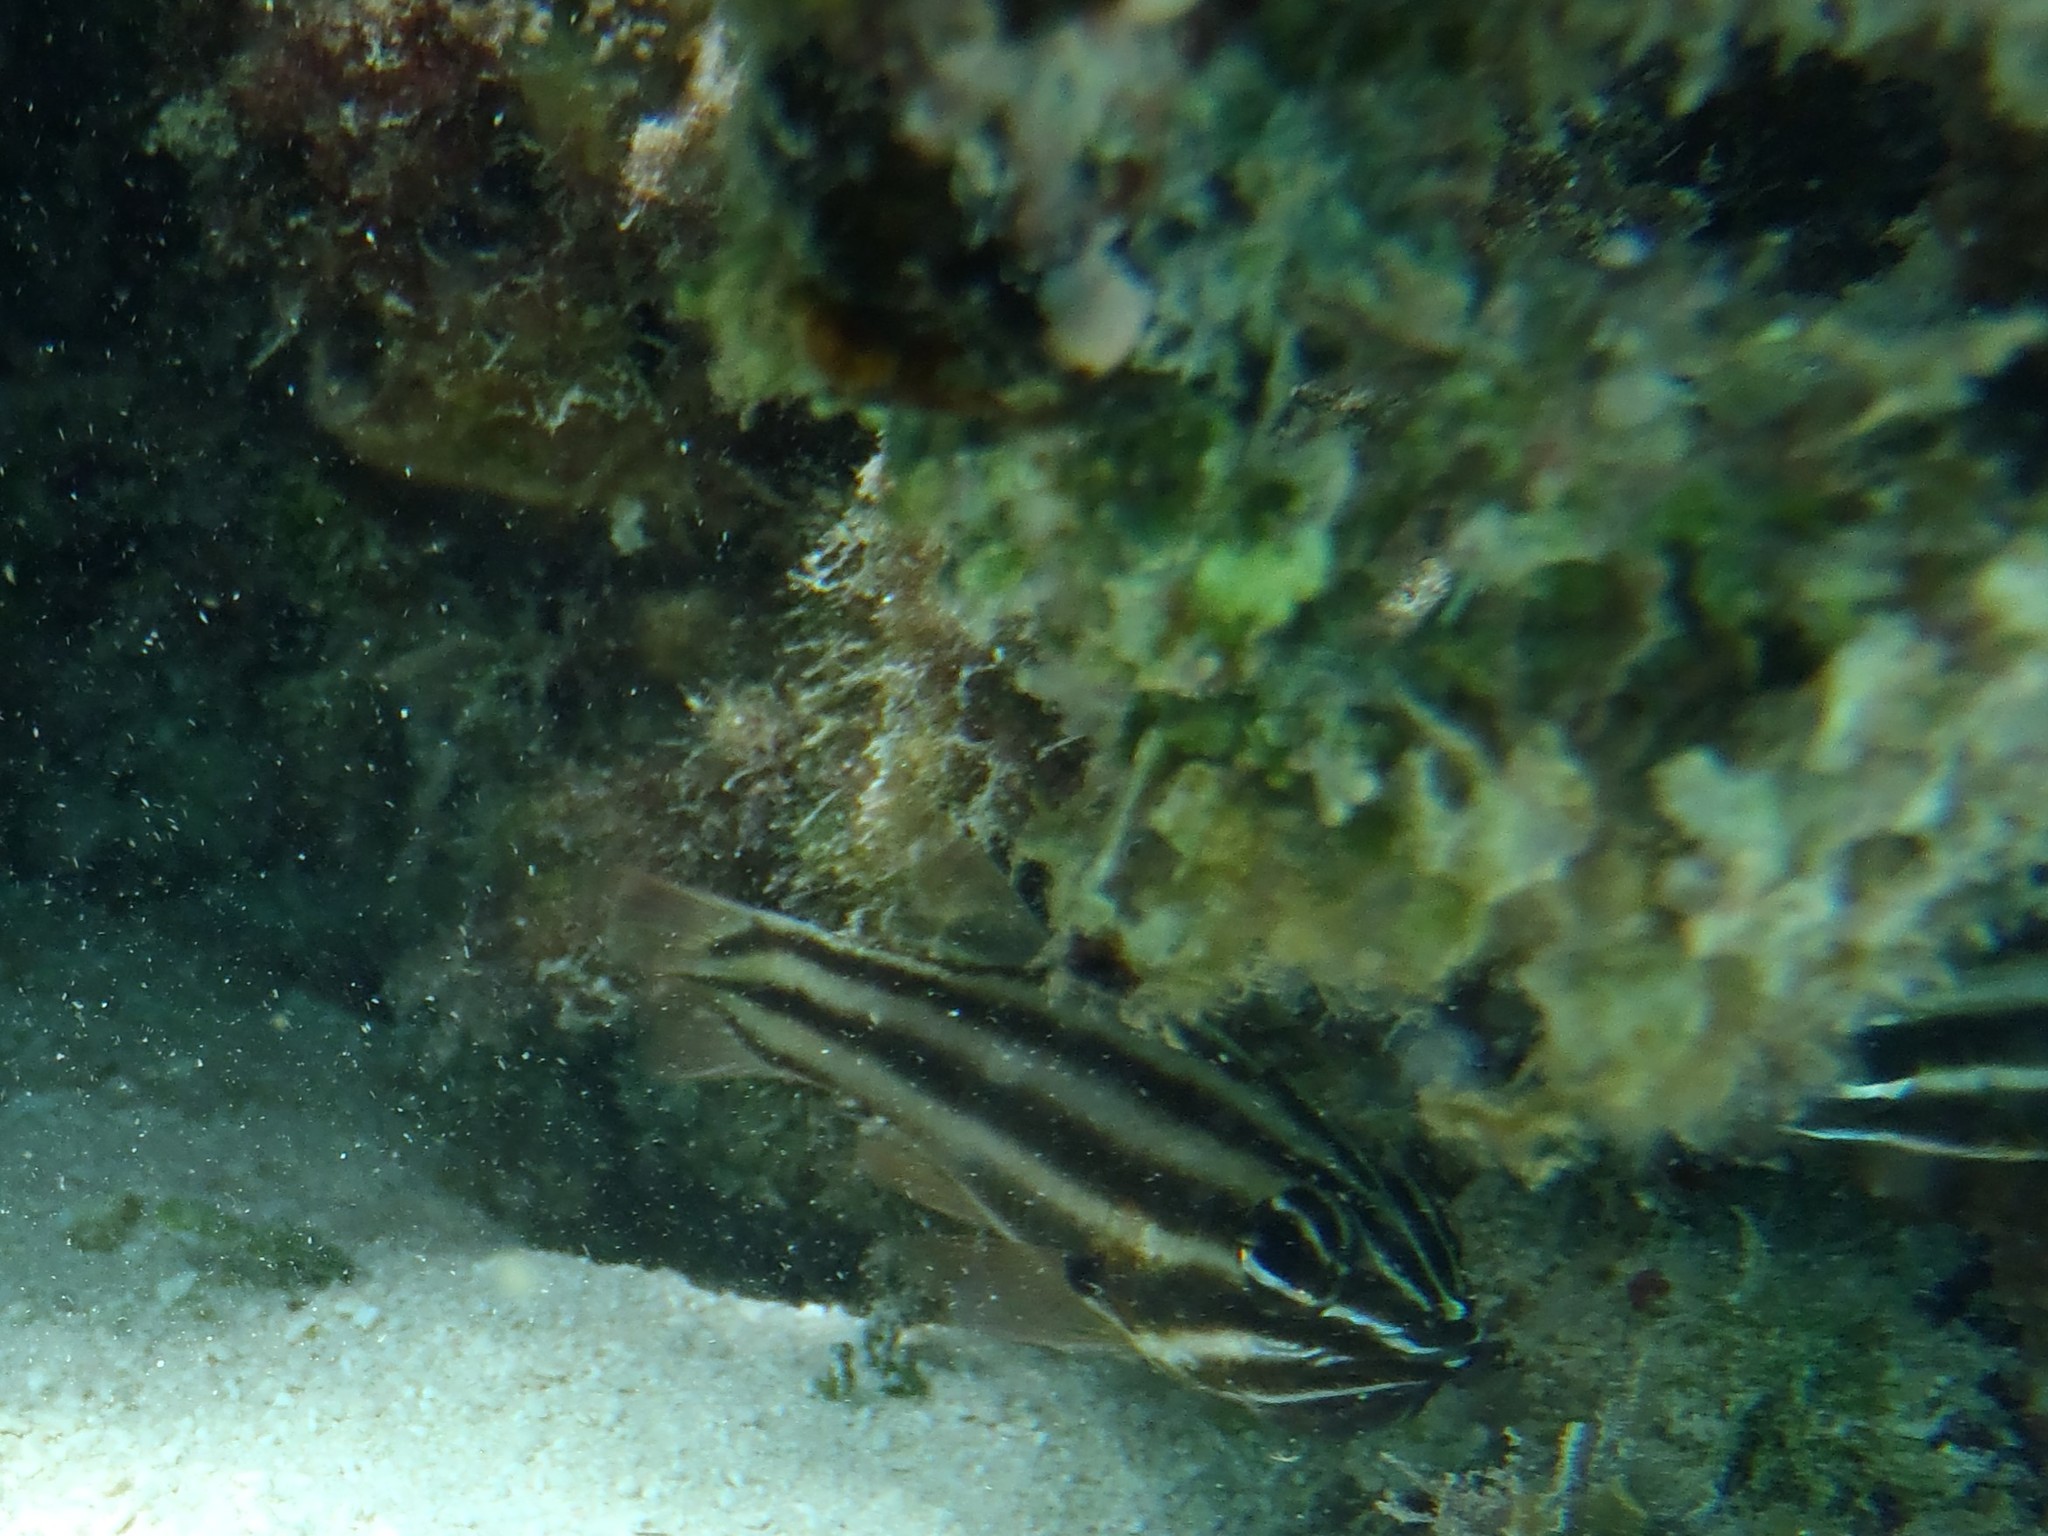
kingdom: Animalia
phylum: Chordata
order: Perciformes
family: Apogonidae
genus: Ostorhinchus
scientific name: Ostorhinchus novemfasciatus
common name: Seven-striped cardinalfish
